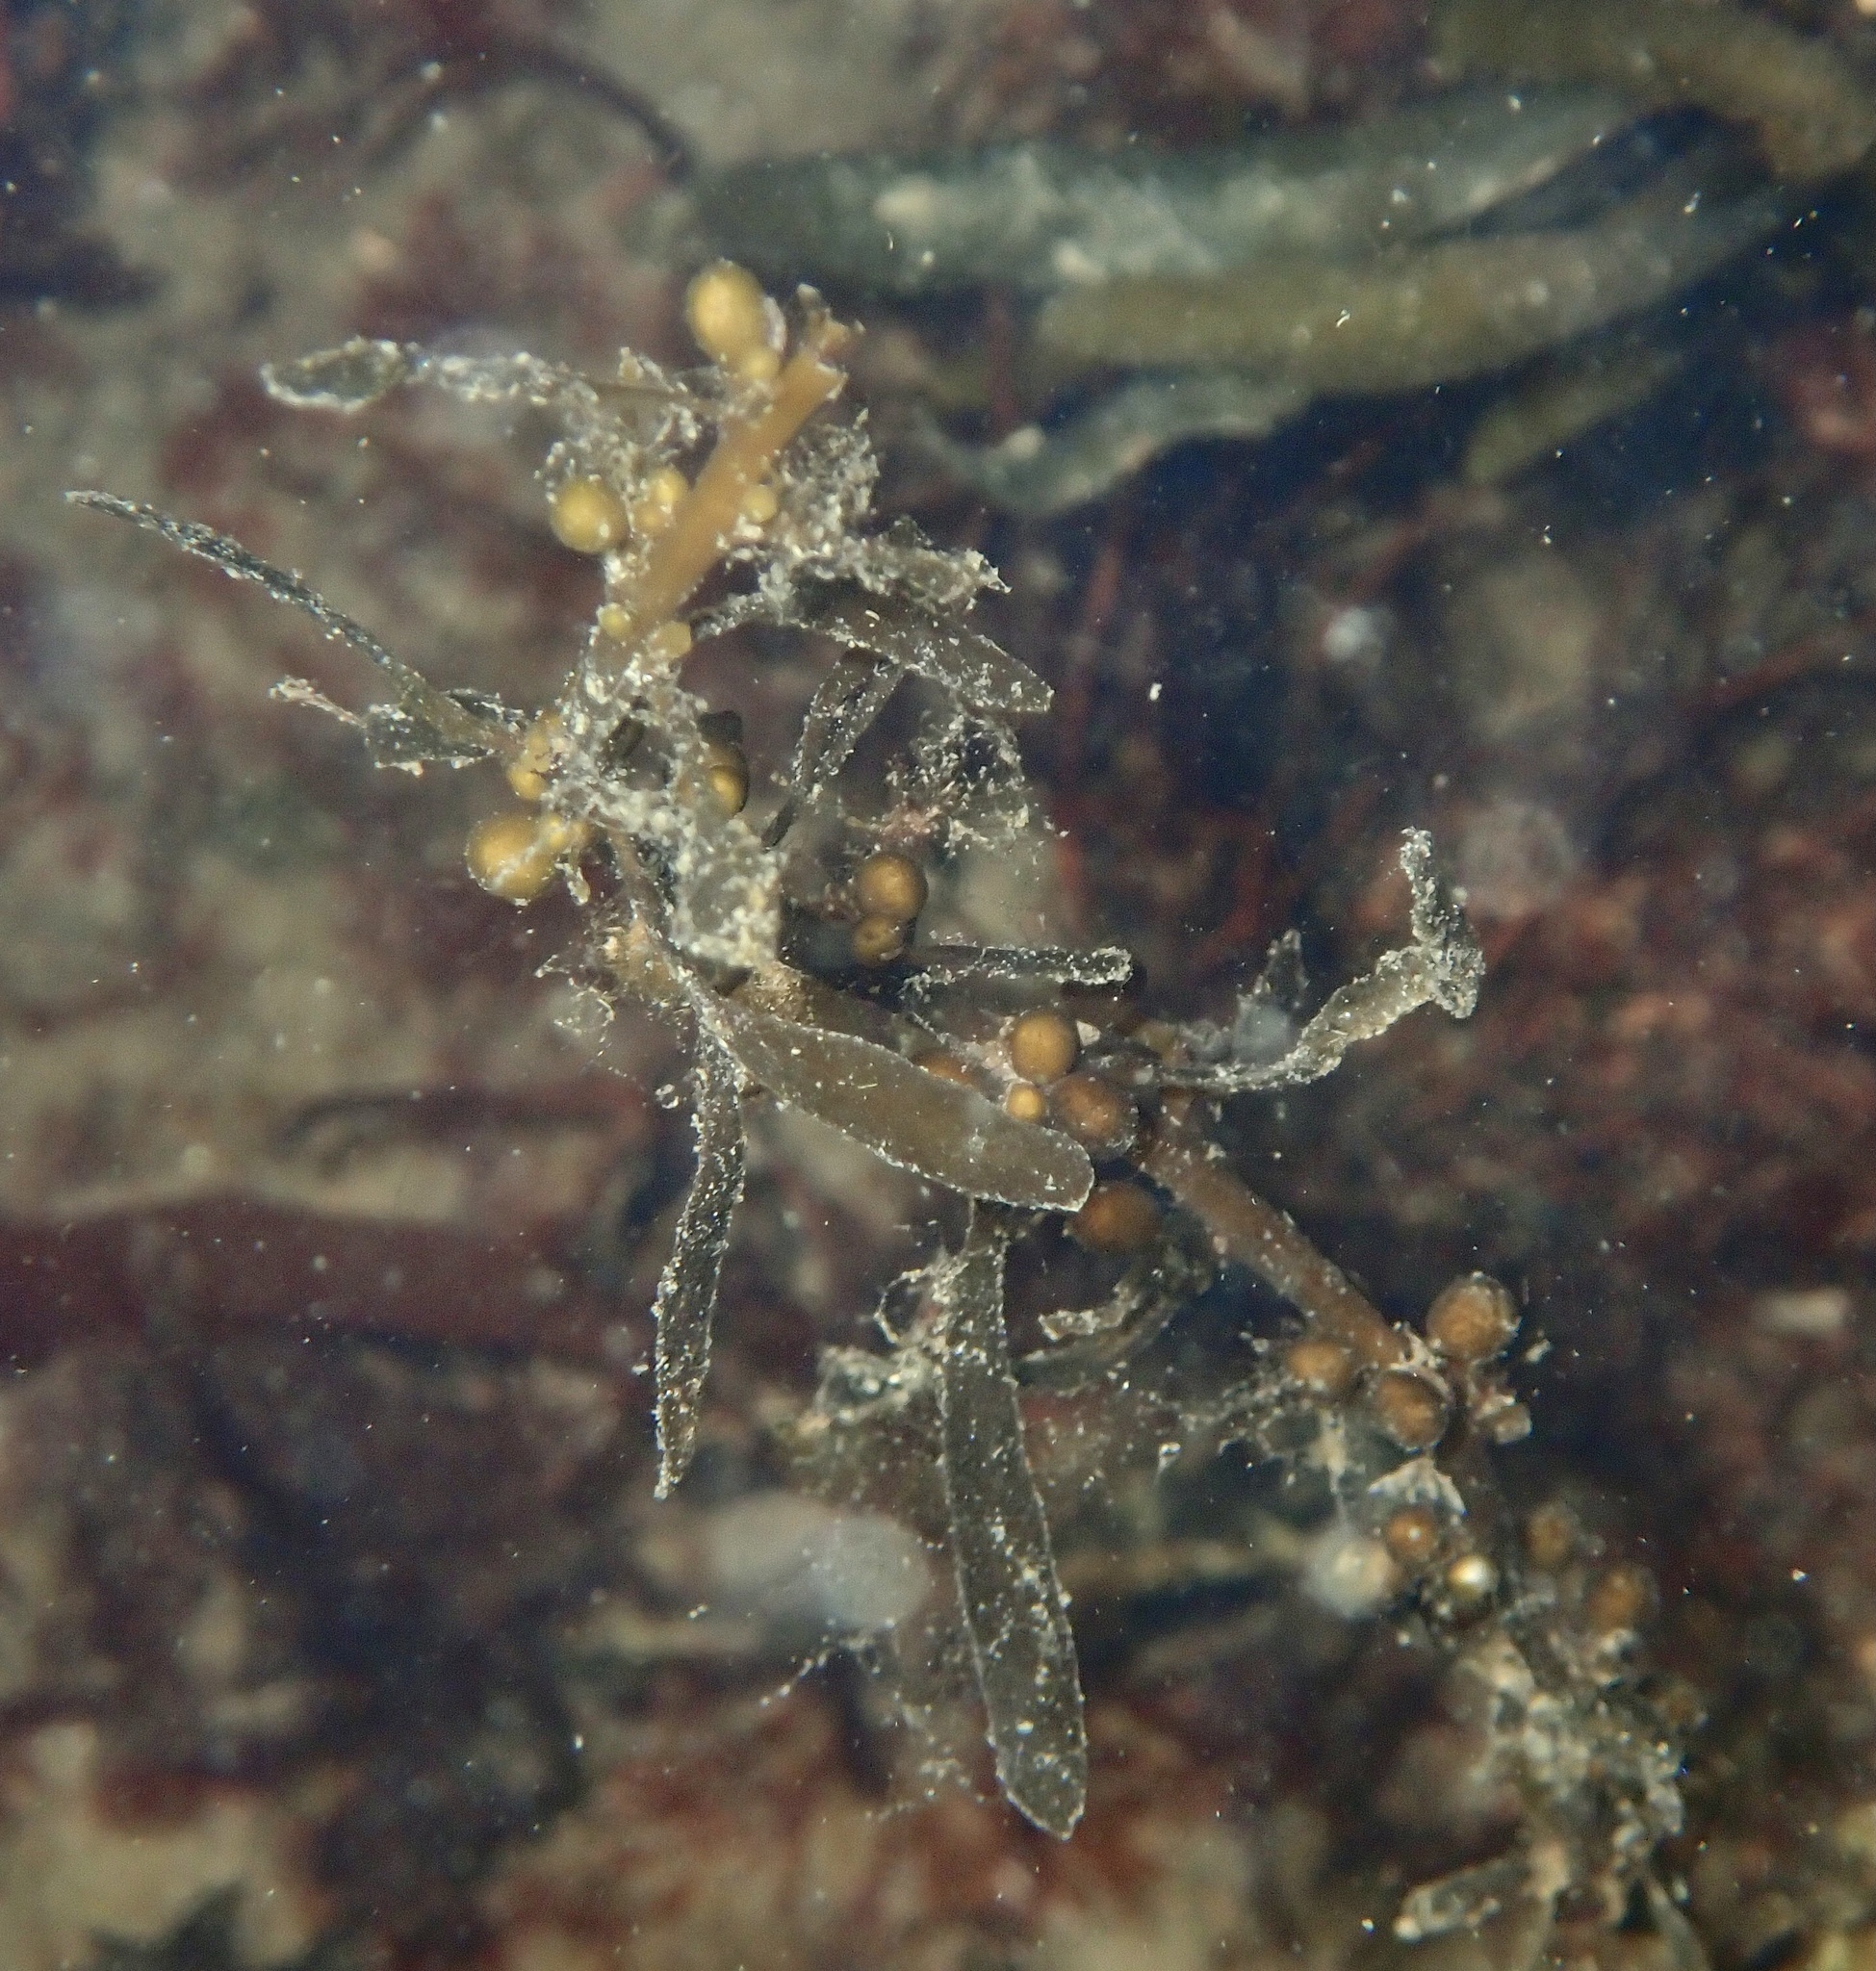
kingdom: Chromista
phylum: Ochrophyta
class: Phaeophyceae
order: Fucales
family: Sargassaceae
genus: Sargassum
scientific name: Sargassum muticum
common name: Japweed
